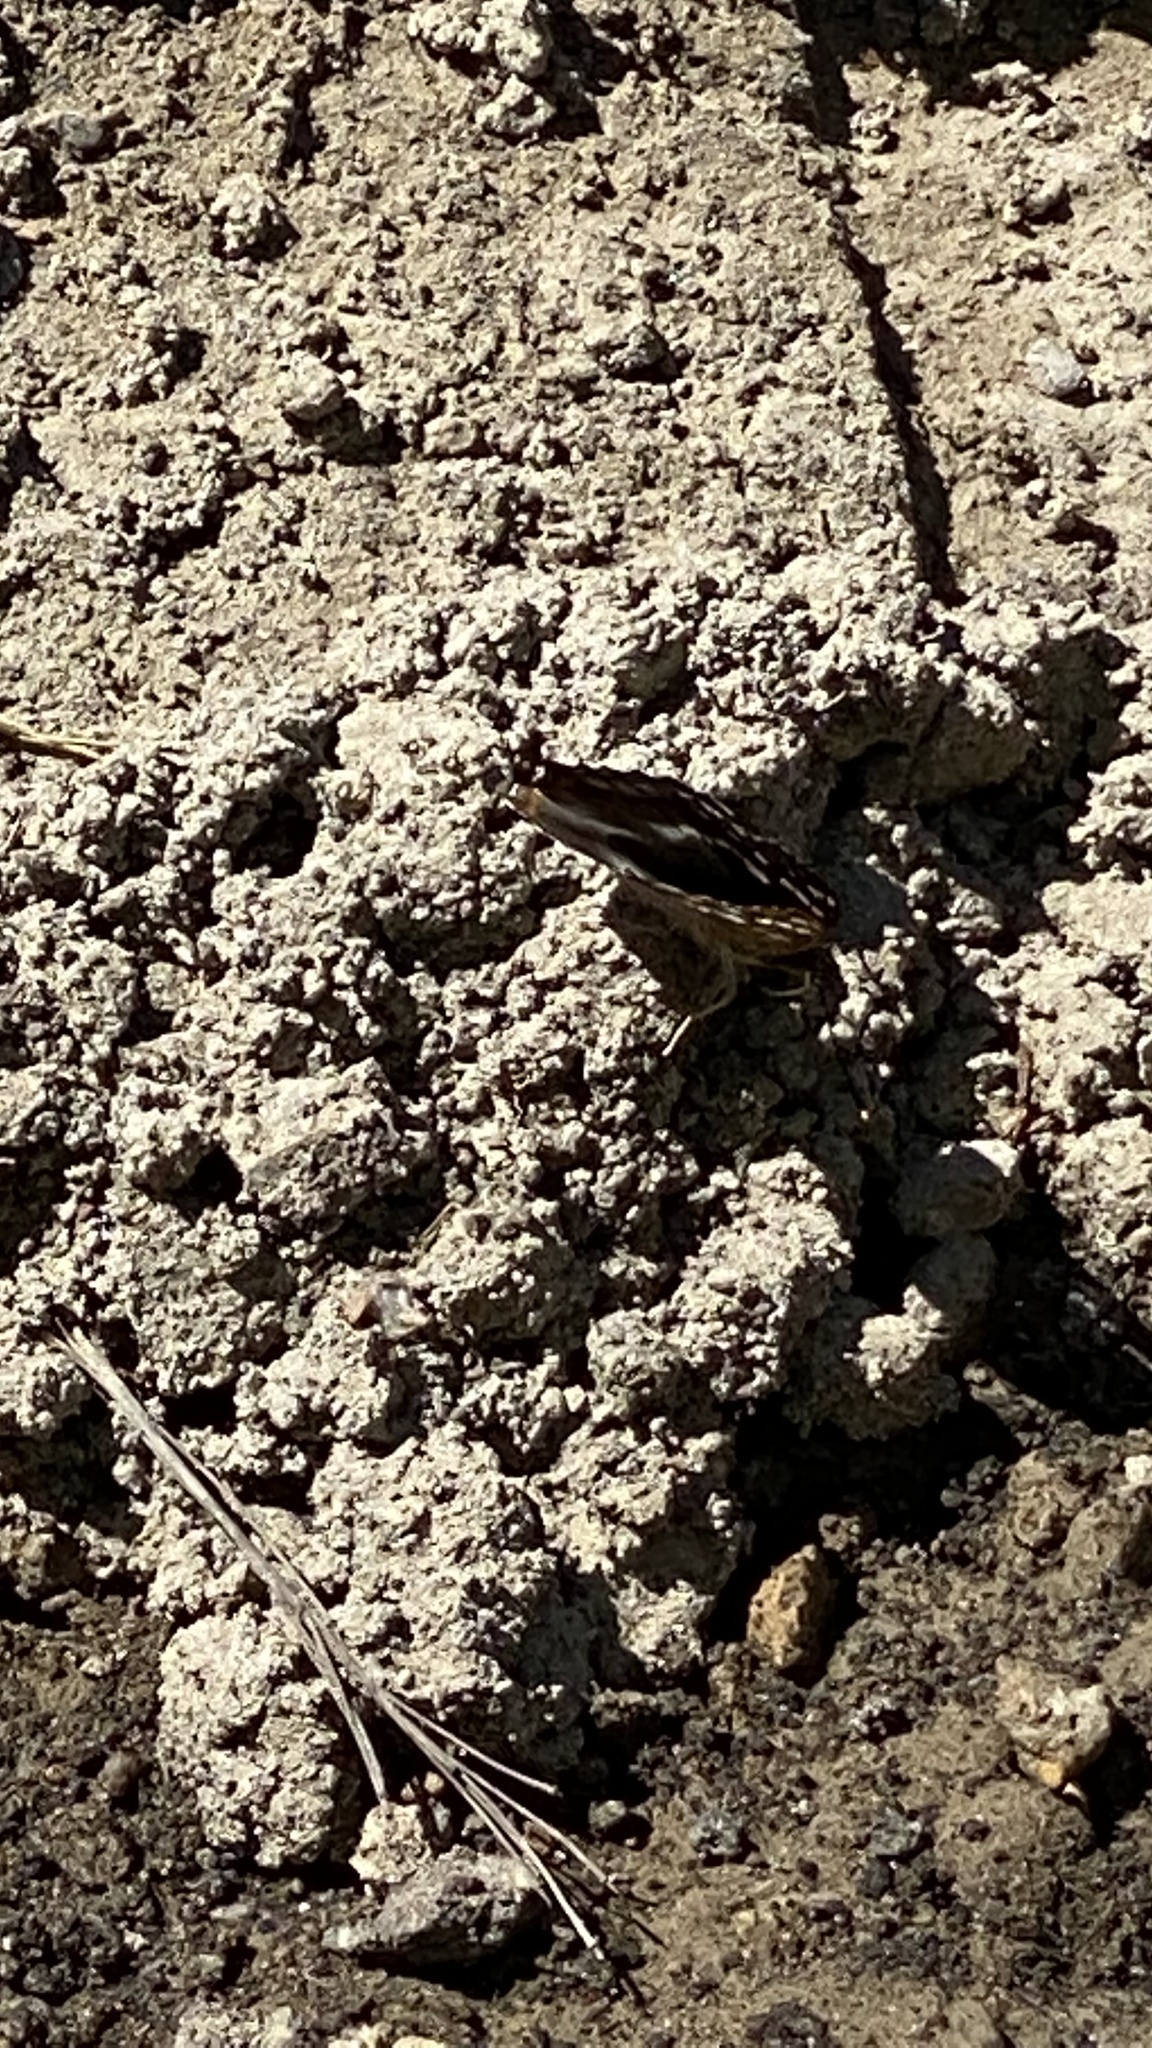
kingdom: Animalia
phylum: Arthropoda
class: Insecta
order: Lepidoptera
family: Nymphalidae
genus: Apatura
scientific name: Apatura ilia
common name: Lesser purple emperor
